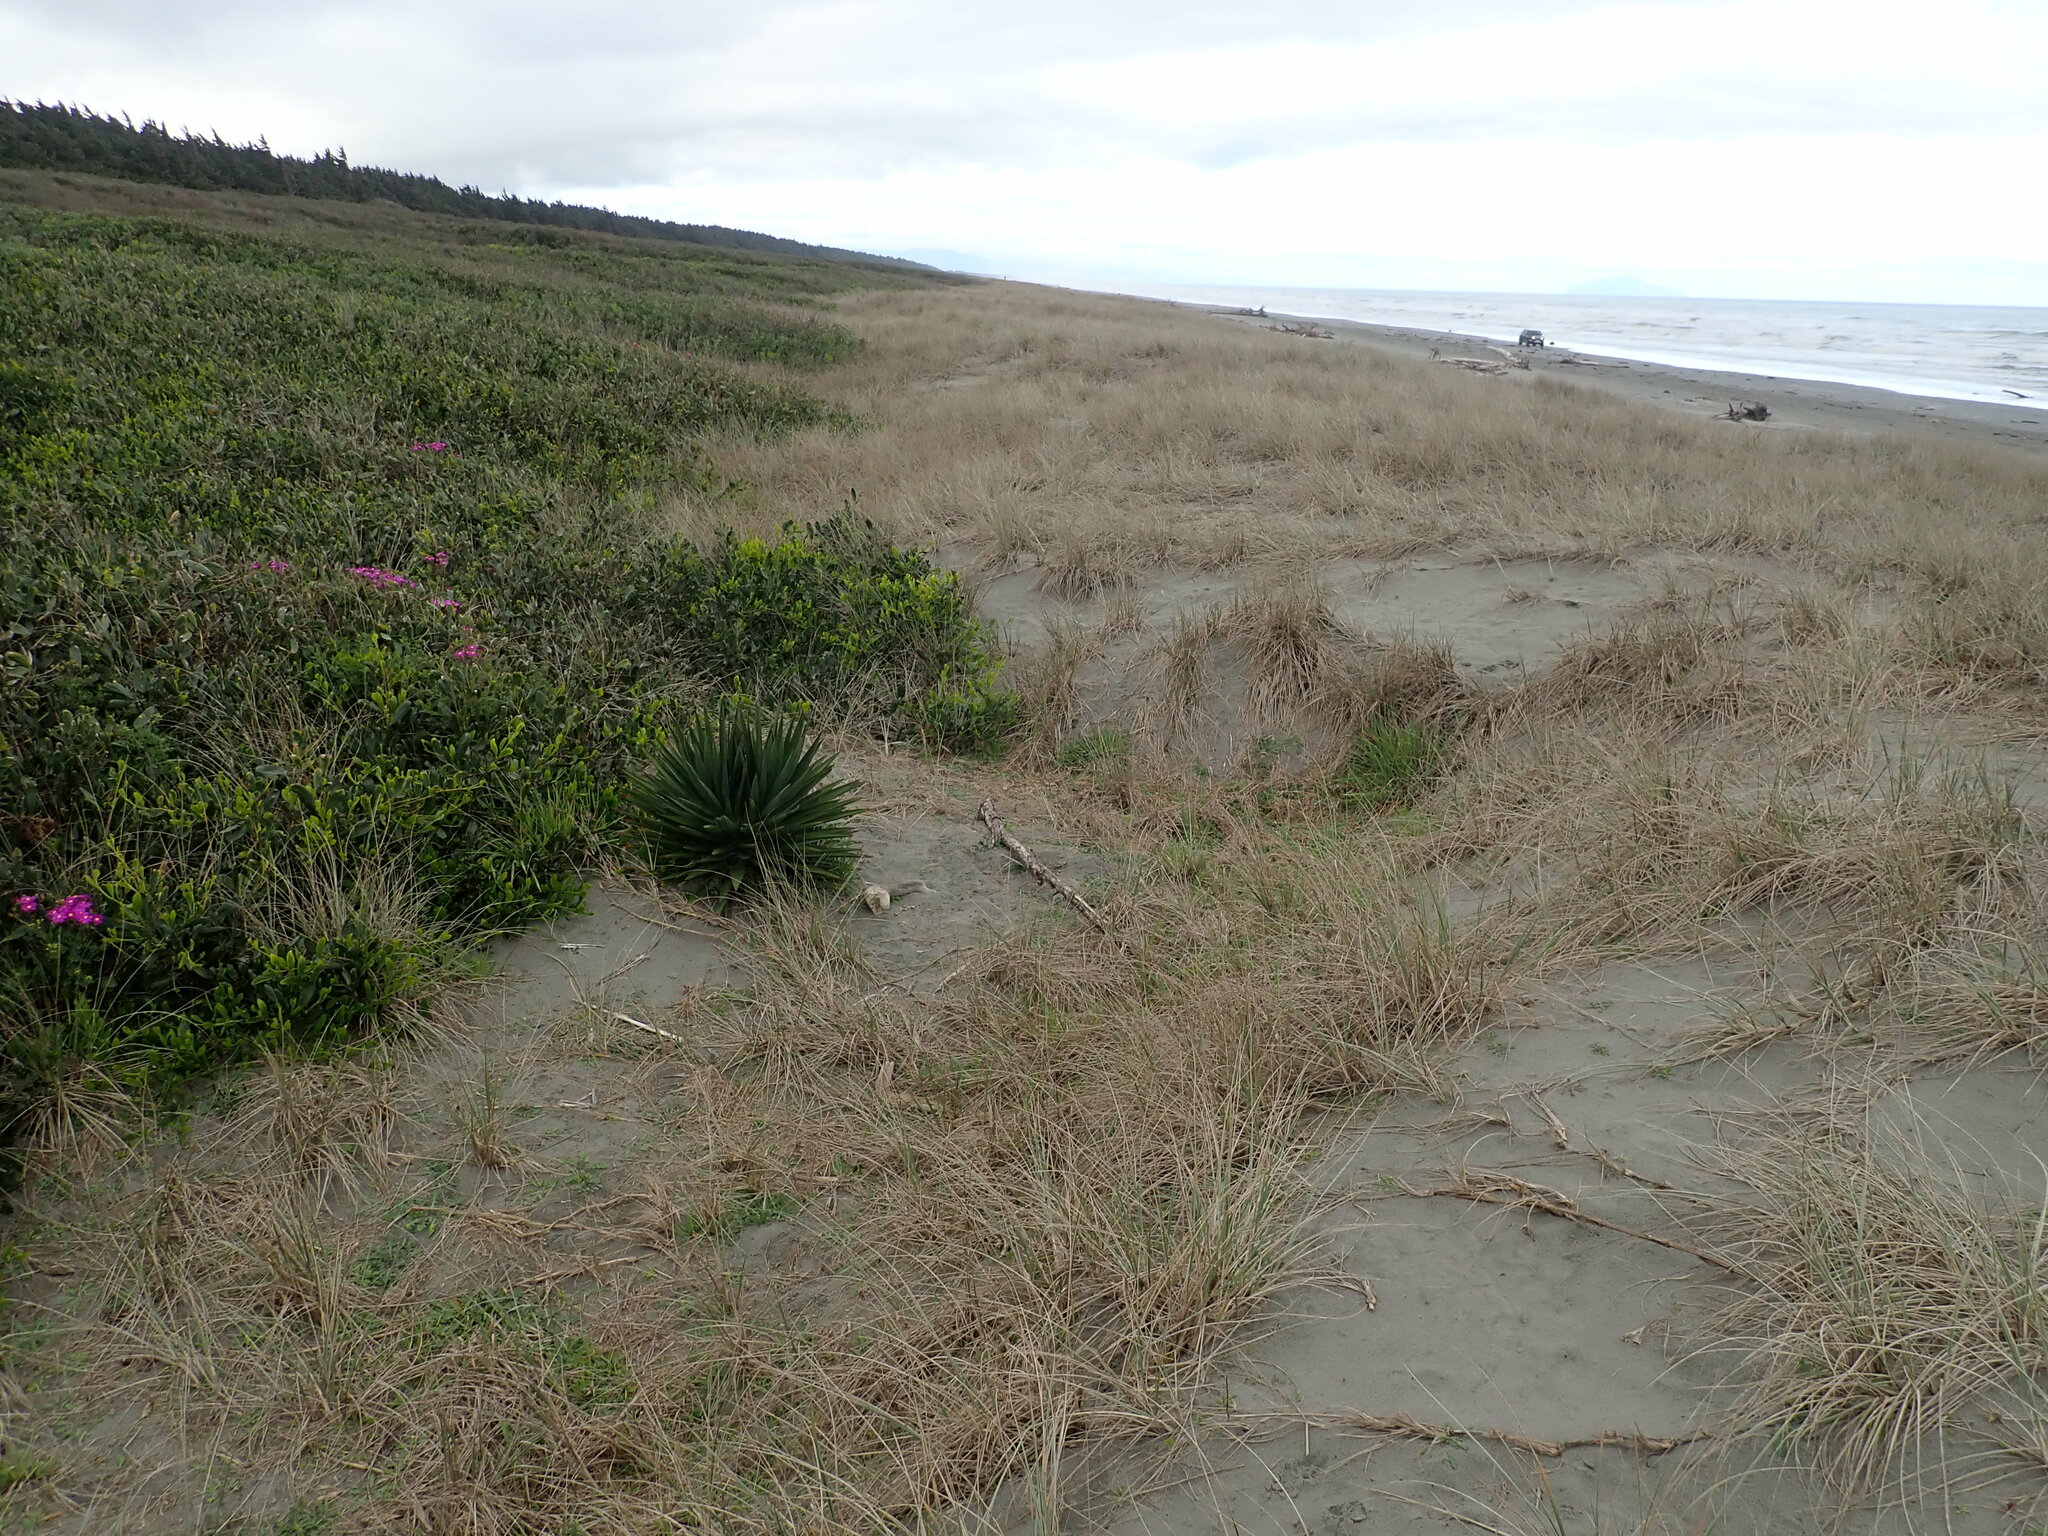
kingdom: Plantae
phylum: Tracheophyta
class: Liliopsida
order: Asparagales
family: Asparagaceae
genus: Yucca
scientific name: Yucca gloriosa
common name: Spanish-dagger
